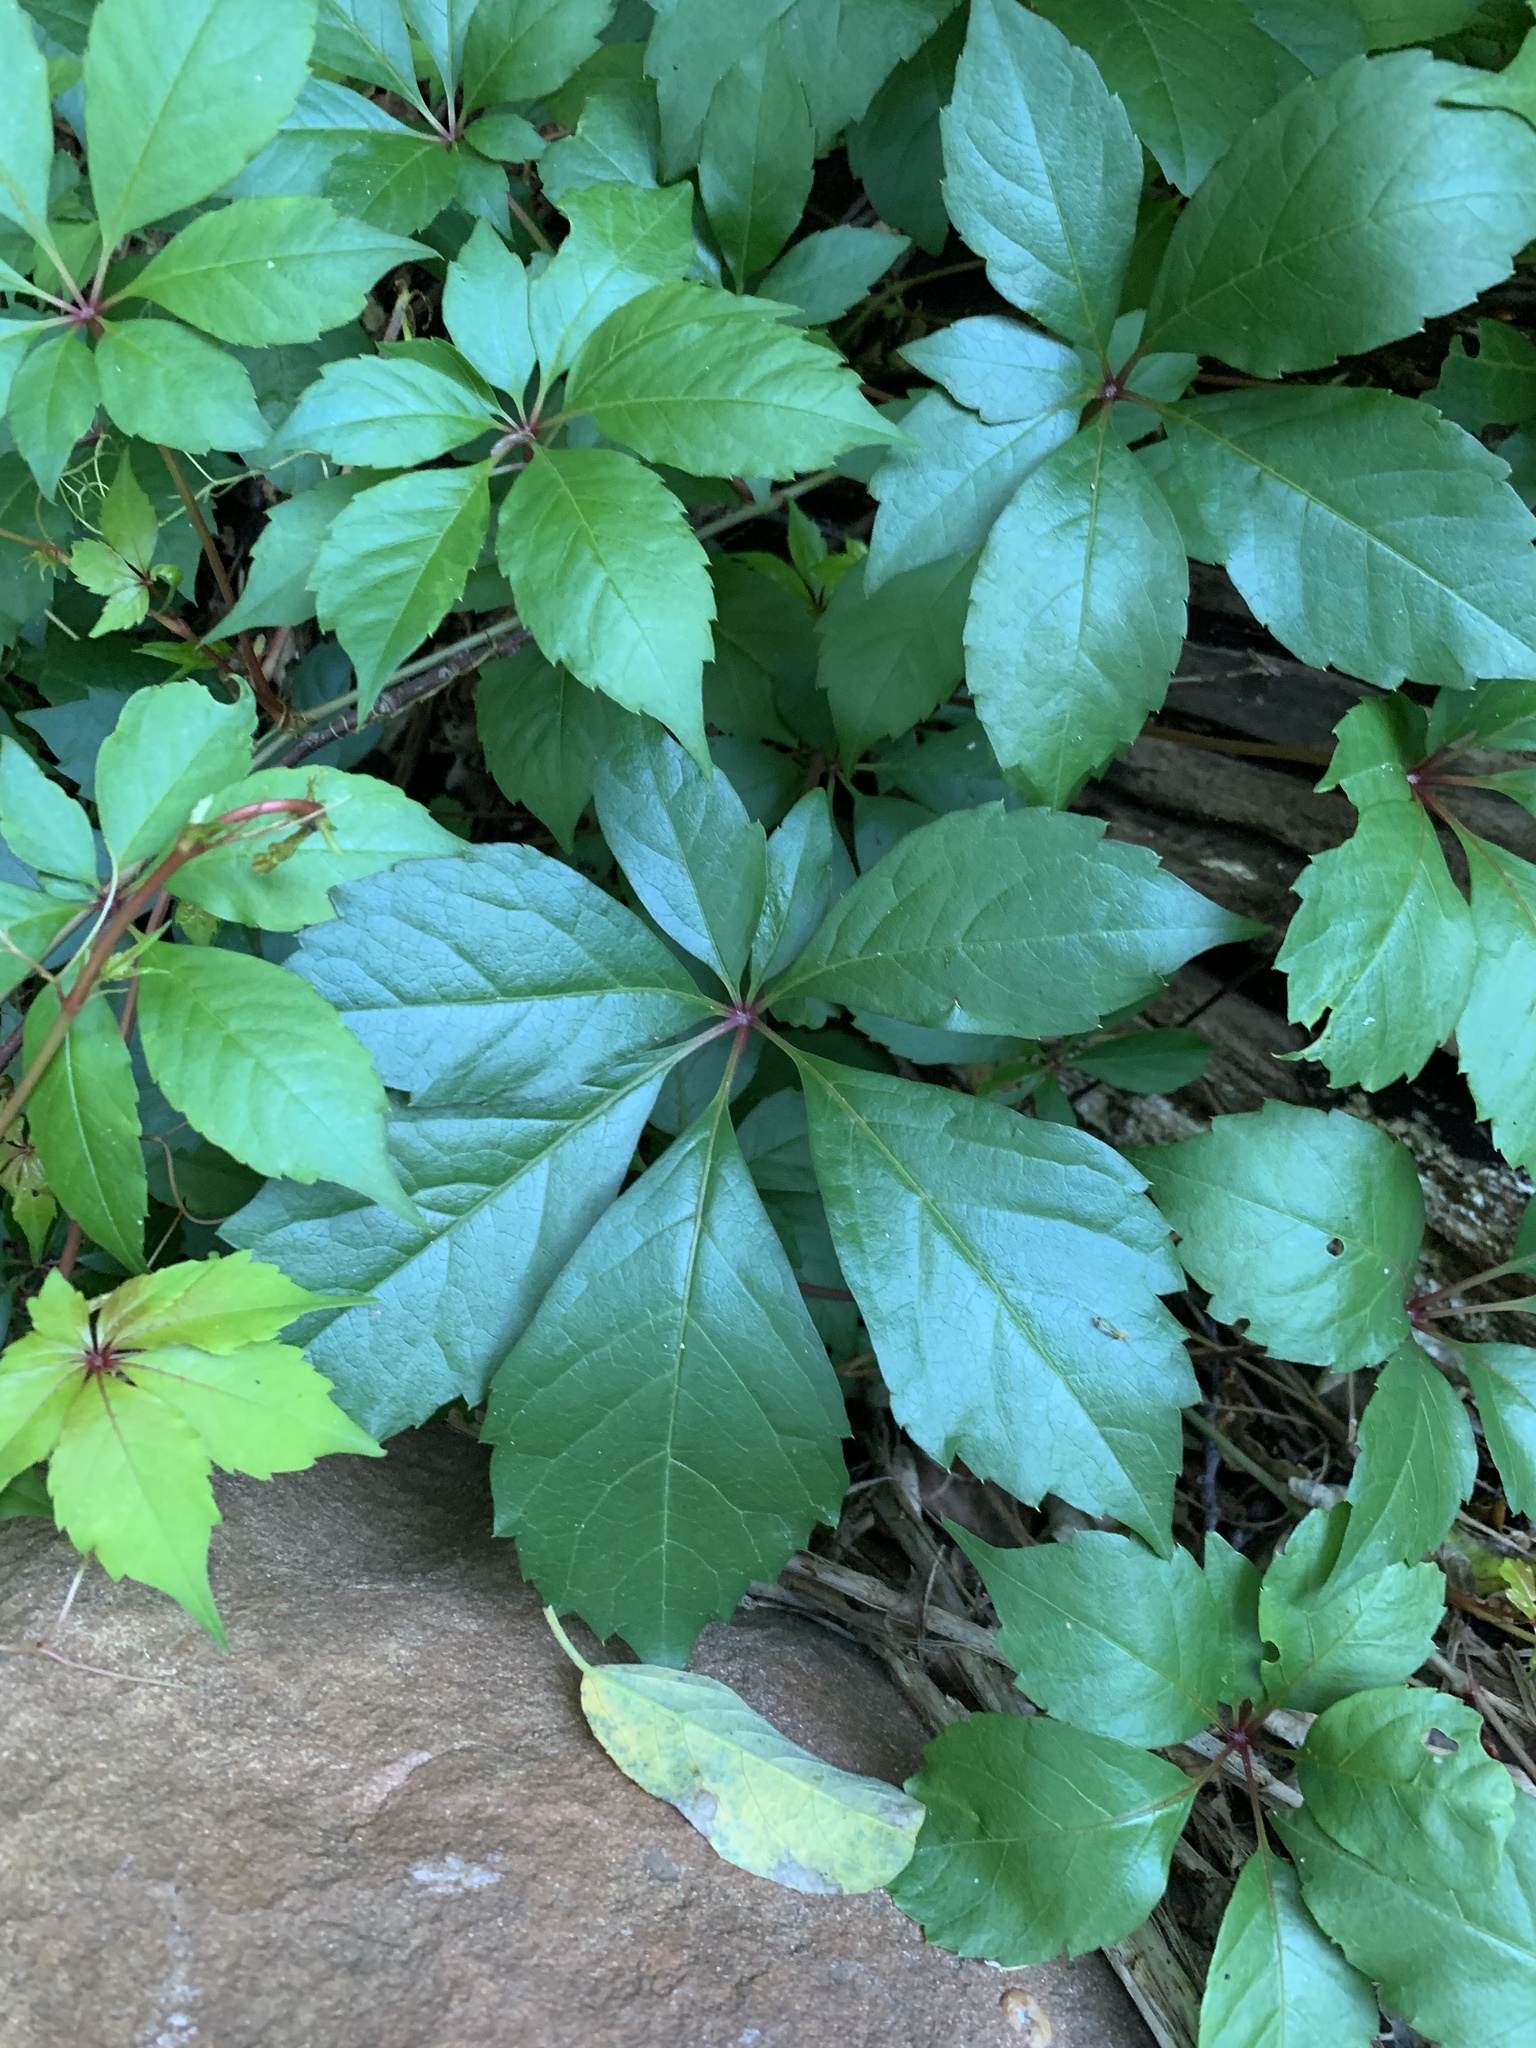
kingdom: Plantae
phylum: Tracheophyta
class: Magnoliopsida
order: Vitales
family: Vitaceae
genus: Parthenocissus
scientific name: Parthenocissus quinquefolia
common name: Virginia-creeper
